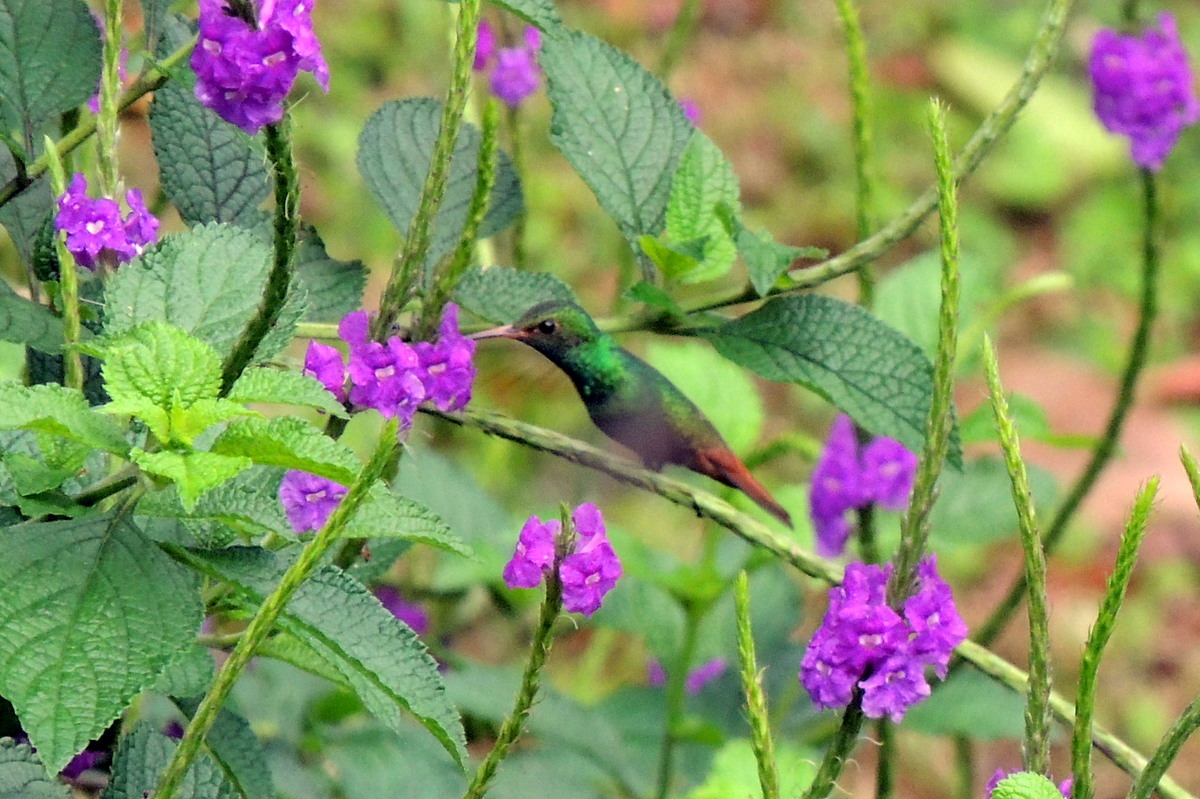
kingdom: Animalia
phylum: Chordata
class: Aves
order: Apodiformes
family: Trochilidae
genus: Amazilia
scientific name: Amazilia tzacatl
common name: Rufous-tailed hummingbird
